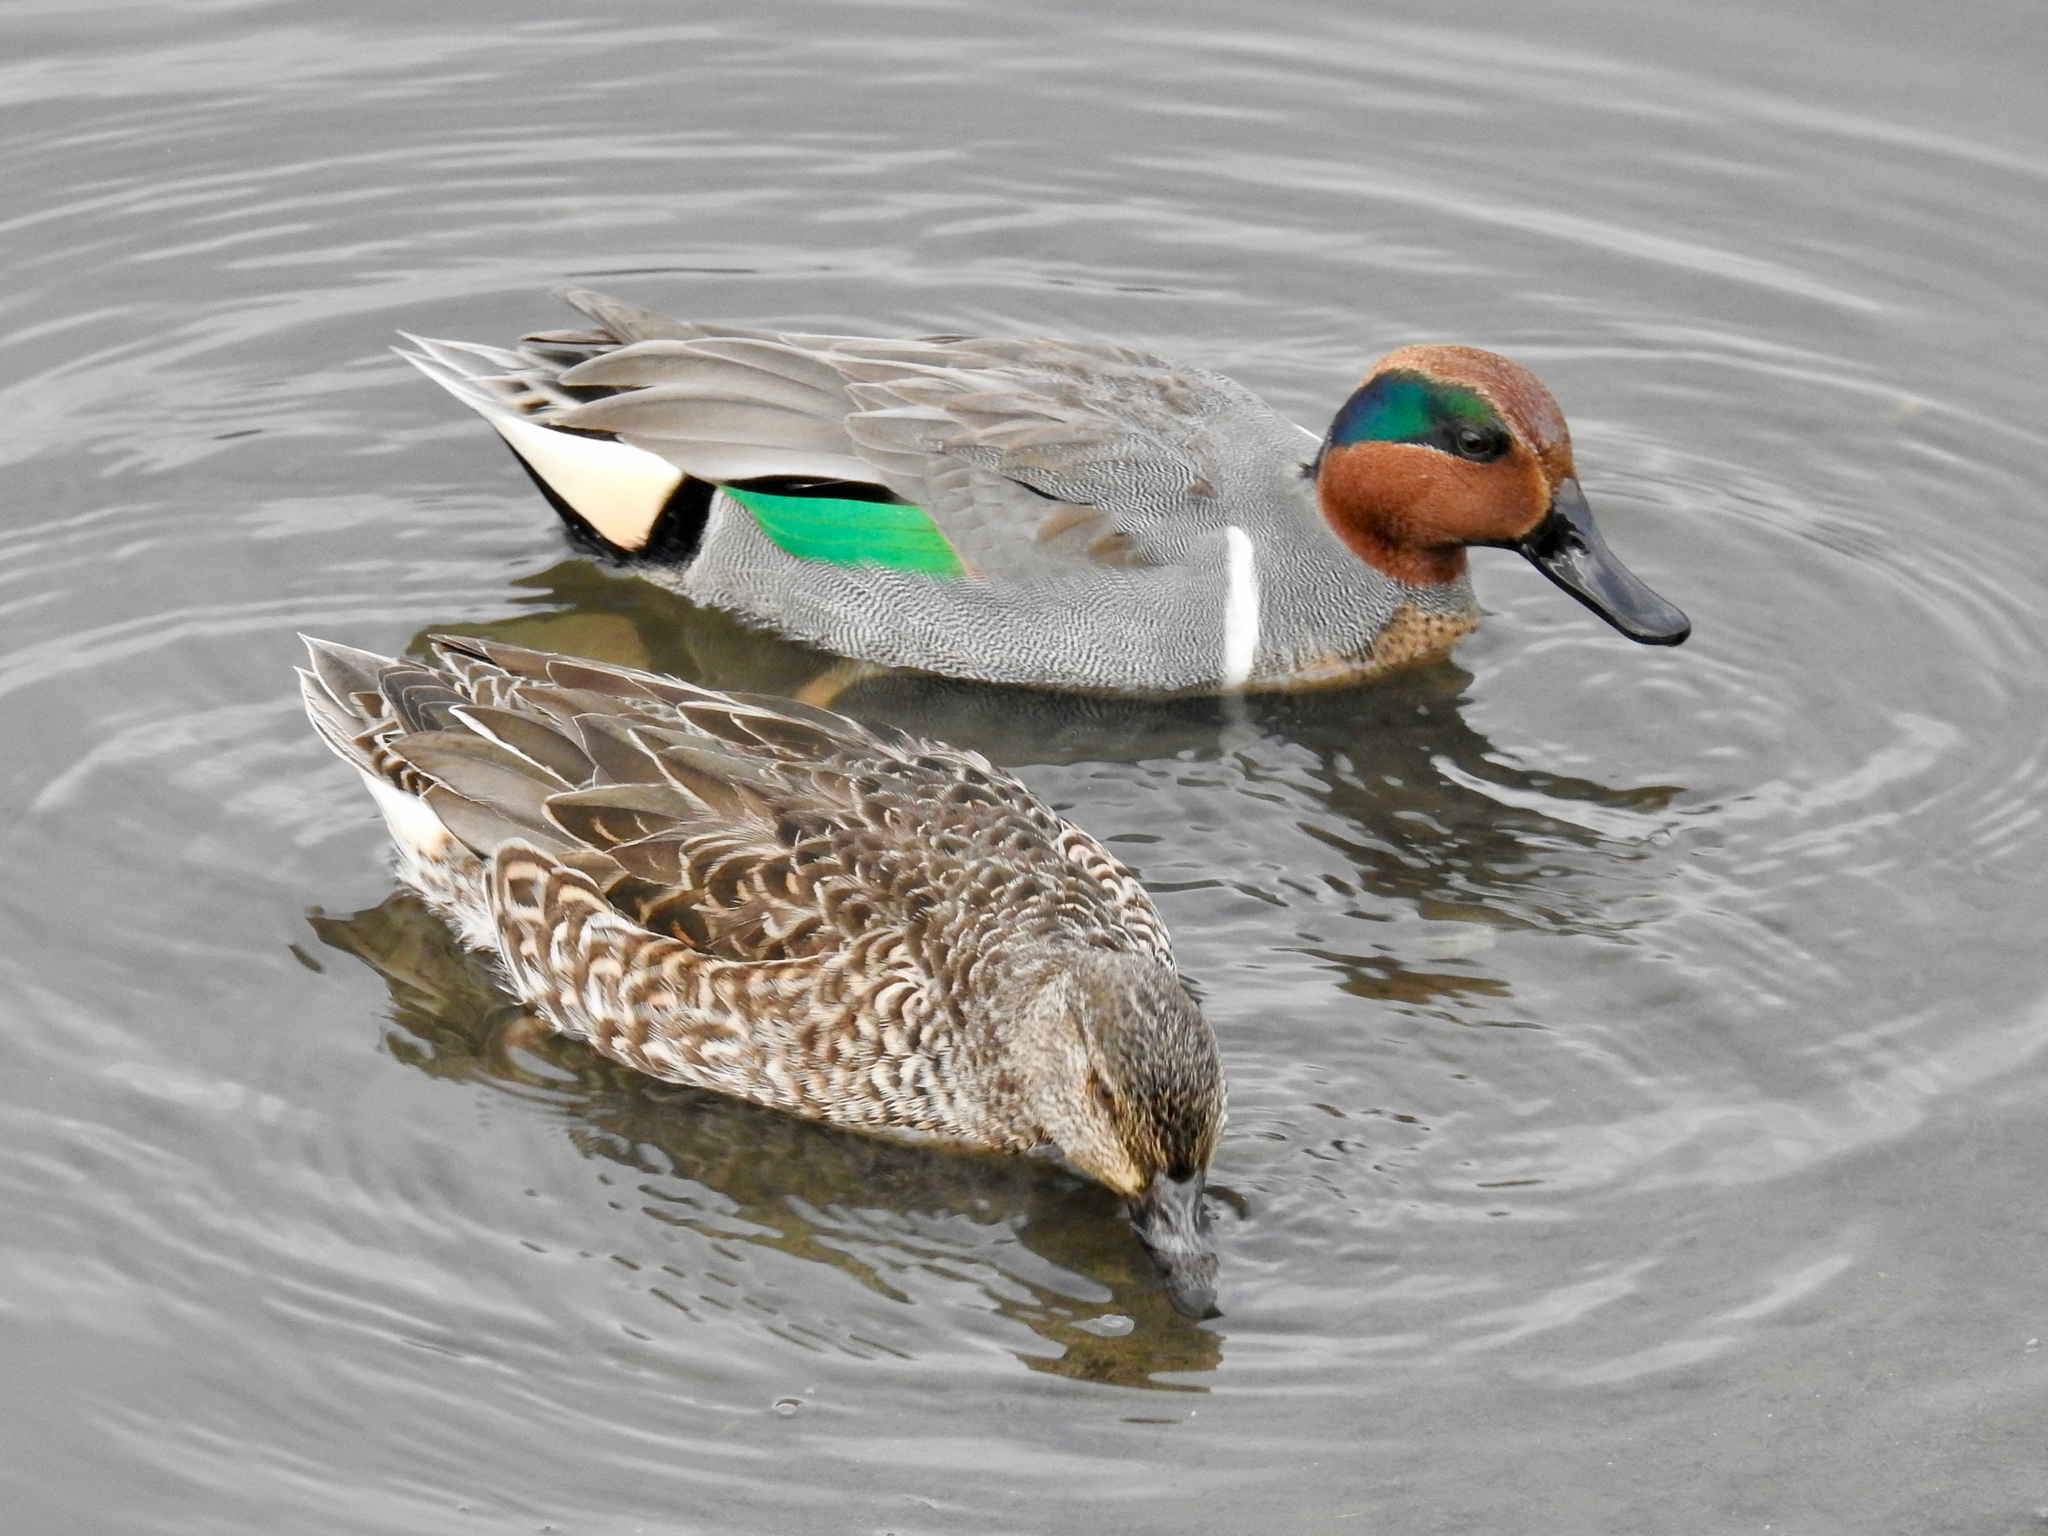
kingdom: Animalia
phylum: Chordata
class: Aves
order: Anseriformes
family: Anatidae
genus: Anas
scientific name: Anas crecca
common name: Eurasian teal
